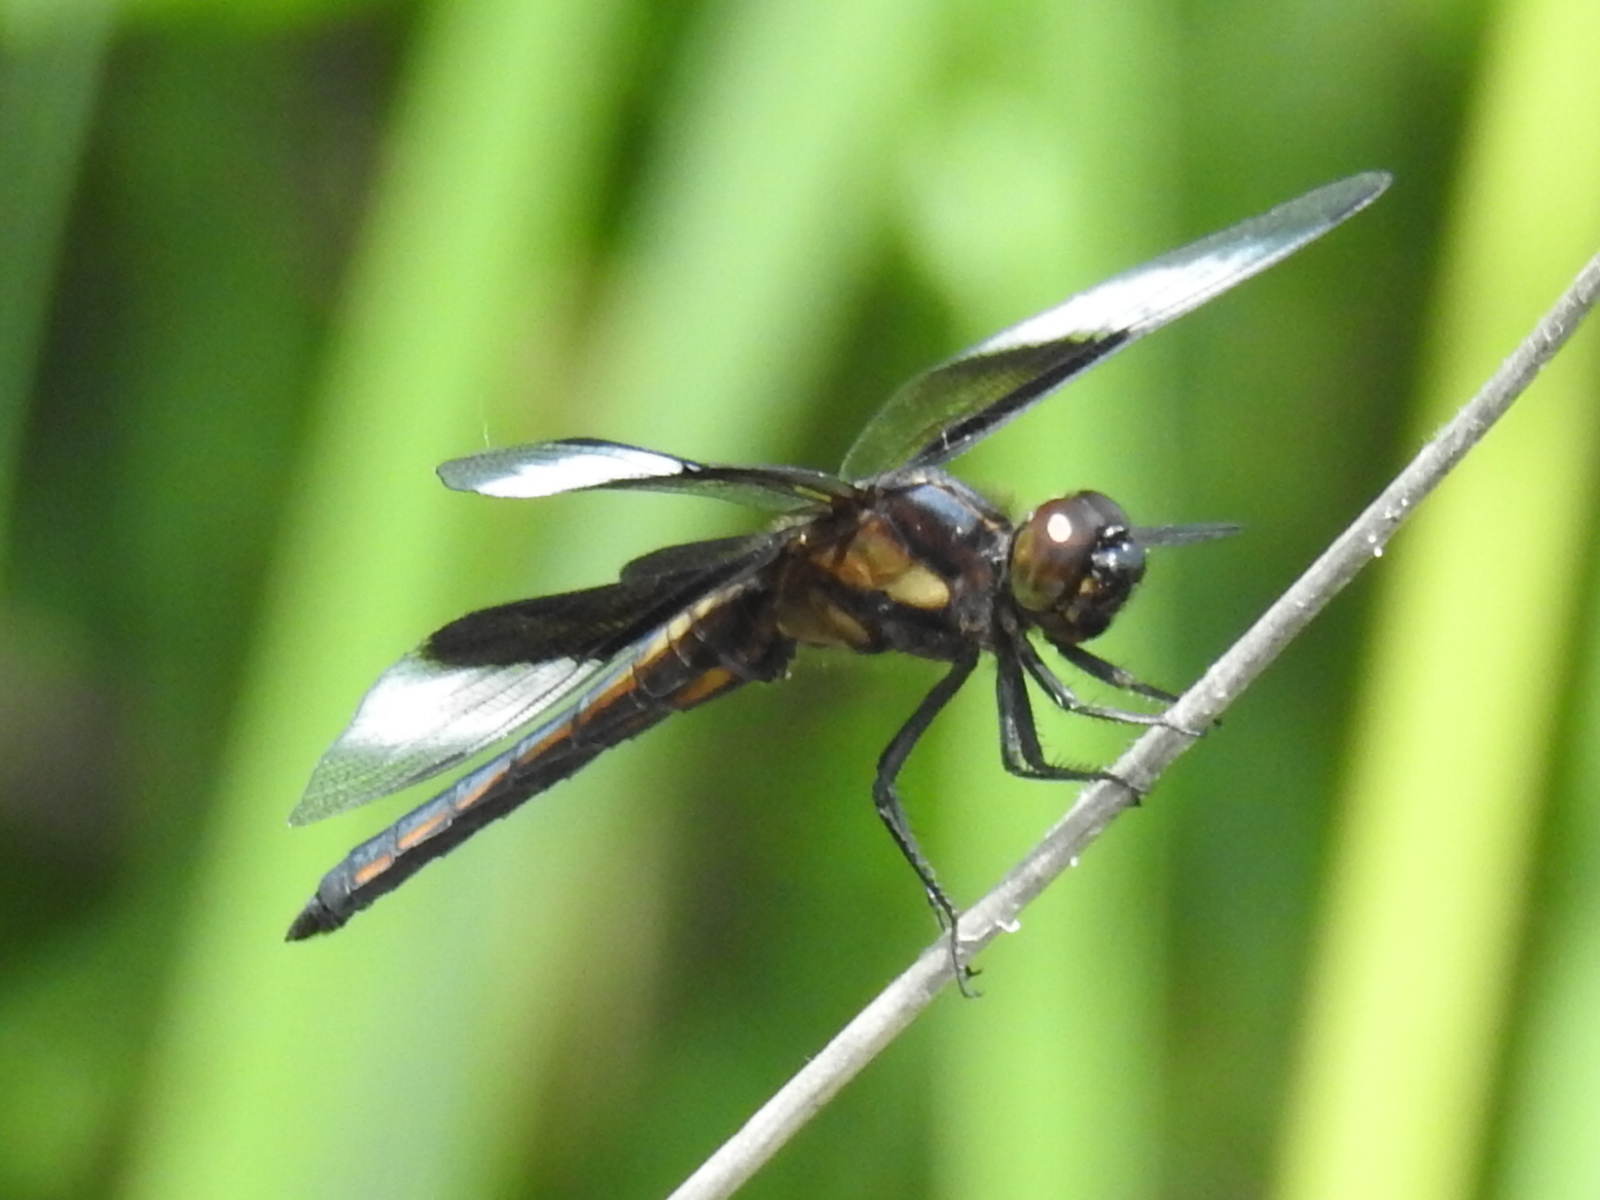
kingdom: Animalia
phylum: Arthropoda
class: Insecta
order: Odonata
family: Libellulidae
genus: Libellula
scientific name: Libellula luctuosa
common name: Widow skimmer
